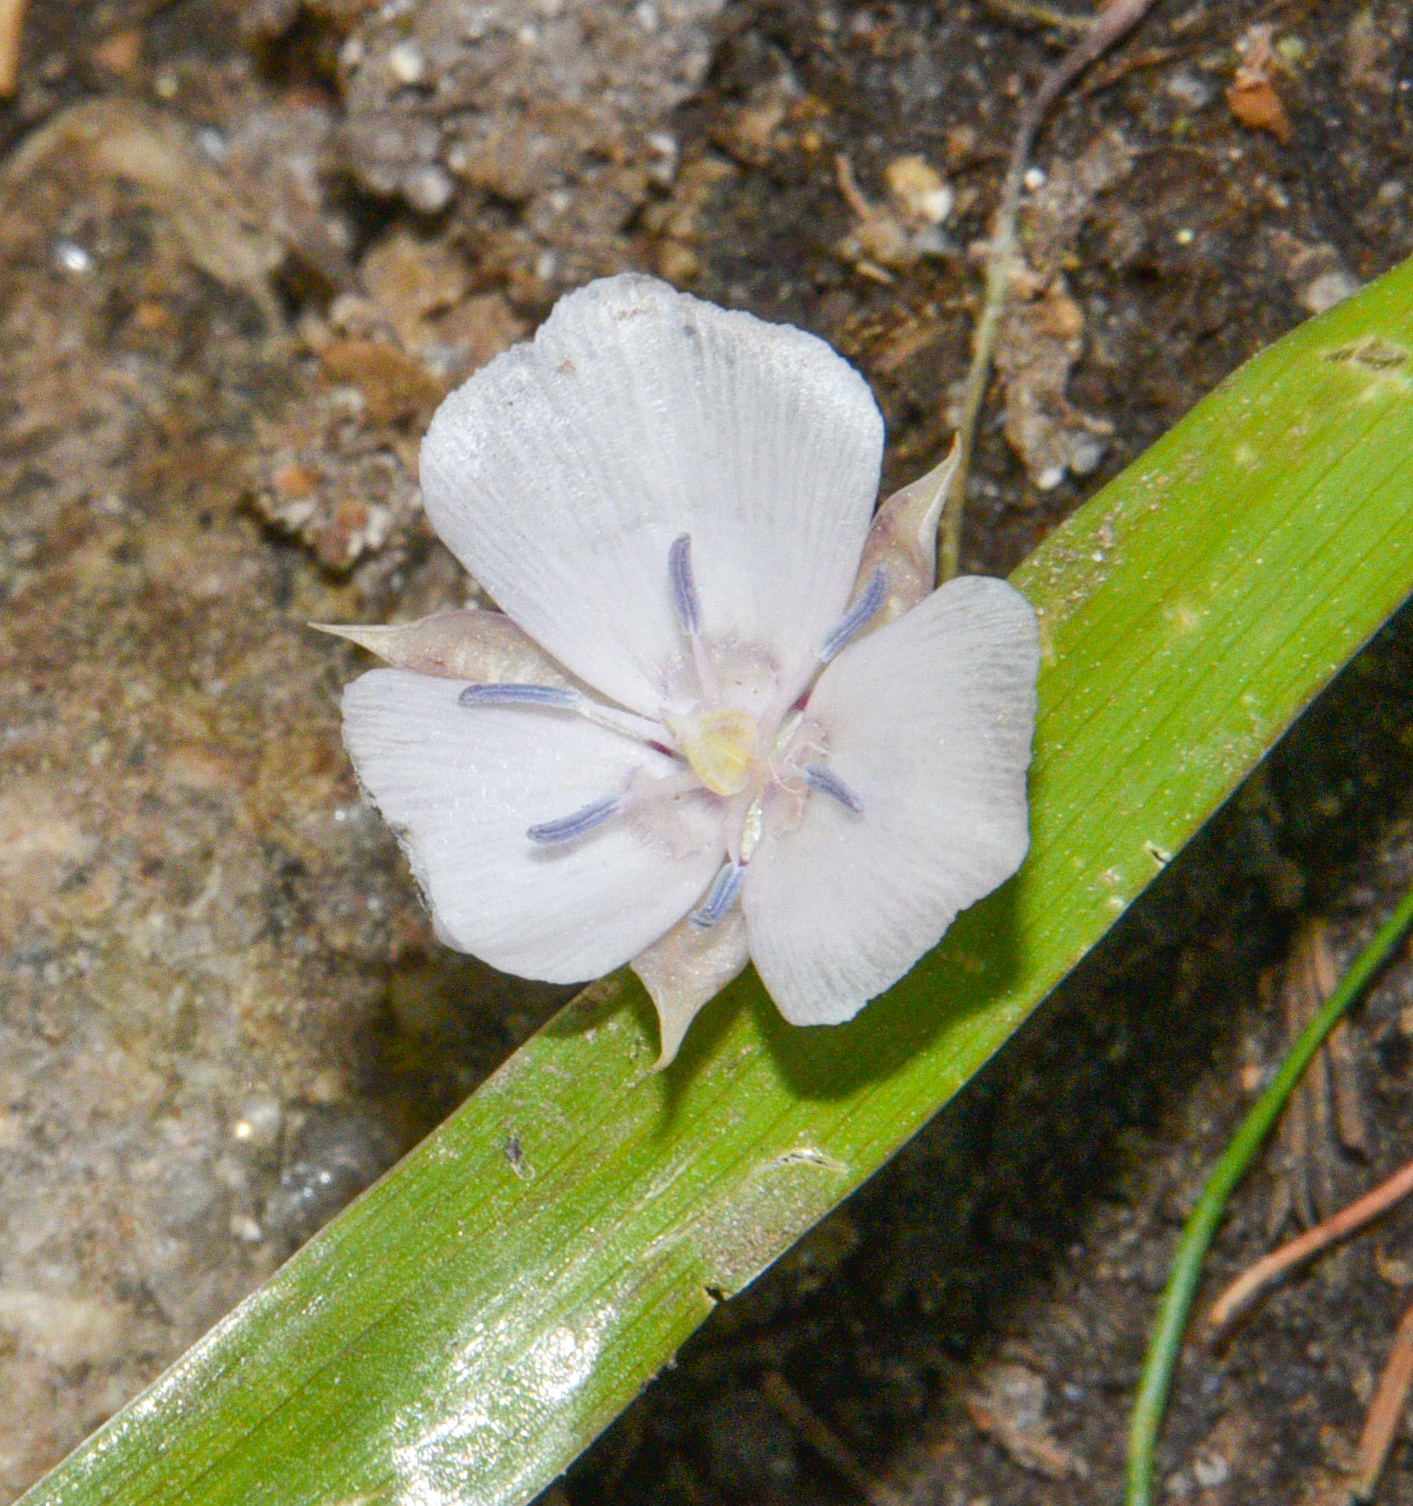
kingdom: Plantae
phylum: Tracheophyta
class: Liliopsida
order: Liliales
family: Liliaceae
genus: Calochortus
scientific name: Calochortus minimus
